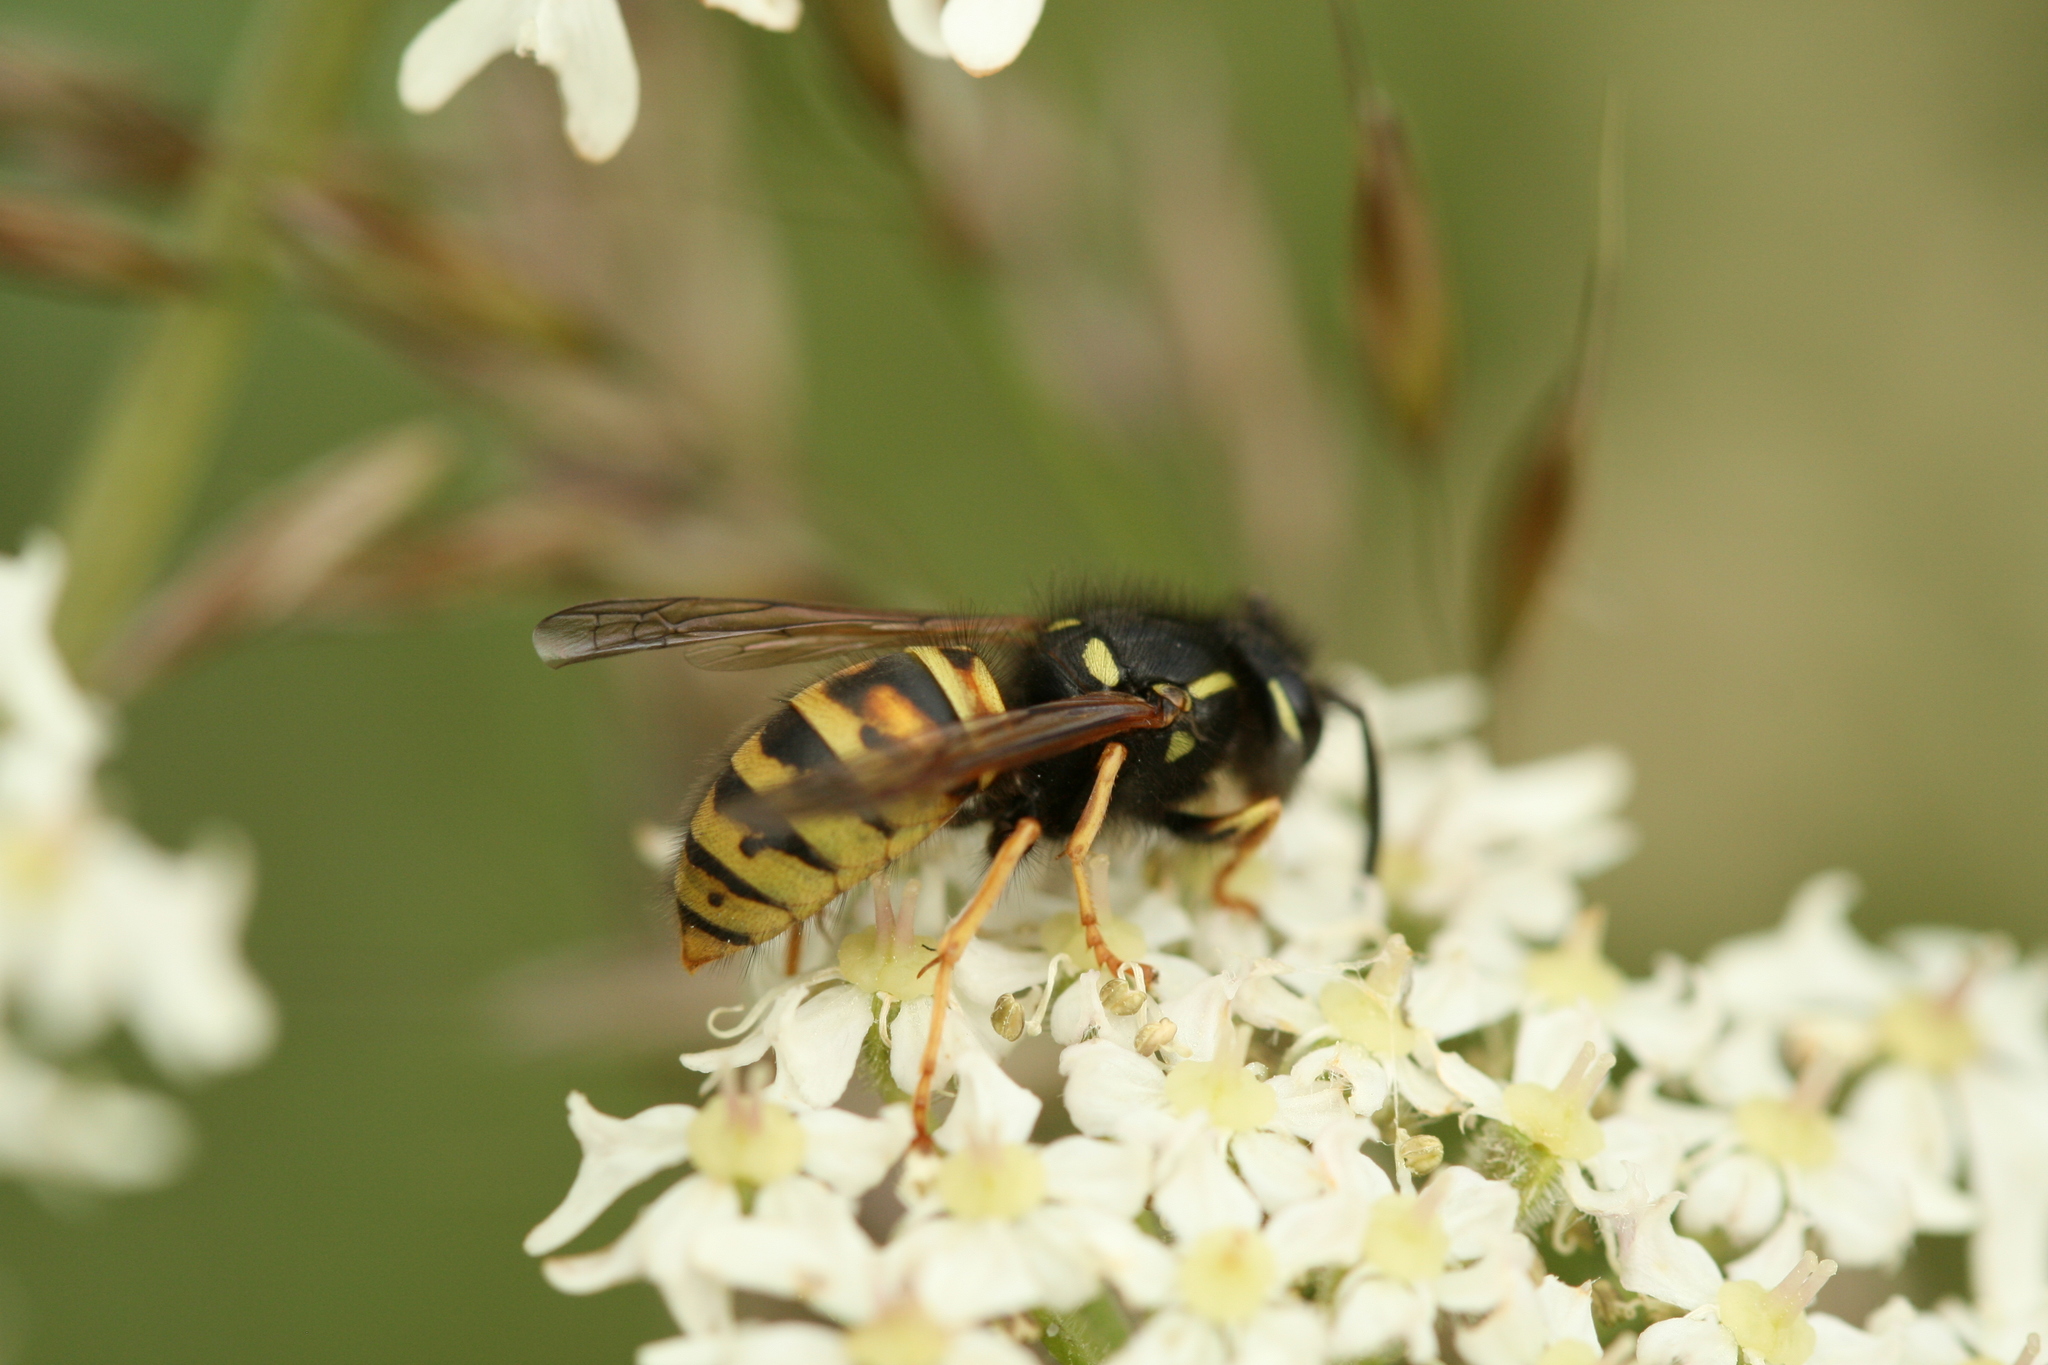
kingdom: Animalia
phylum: Arthropoda
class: Insecta
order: Hymenoptera
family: Vespidae
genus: Vespula
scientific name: Vespula rufa
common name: Red wasp
